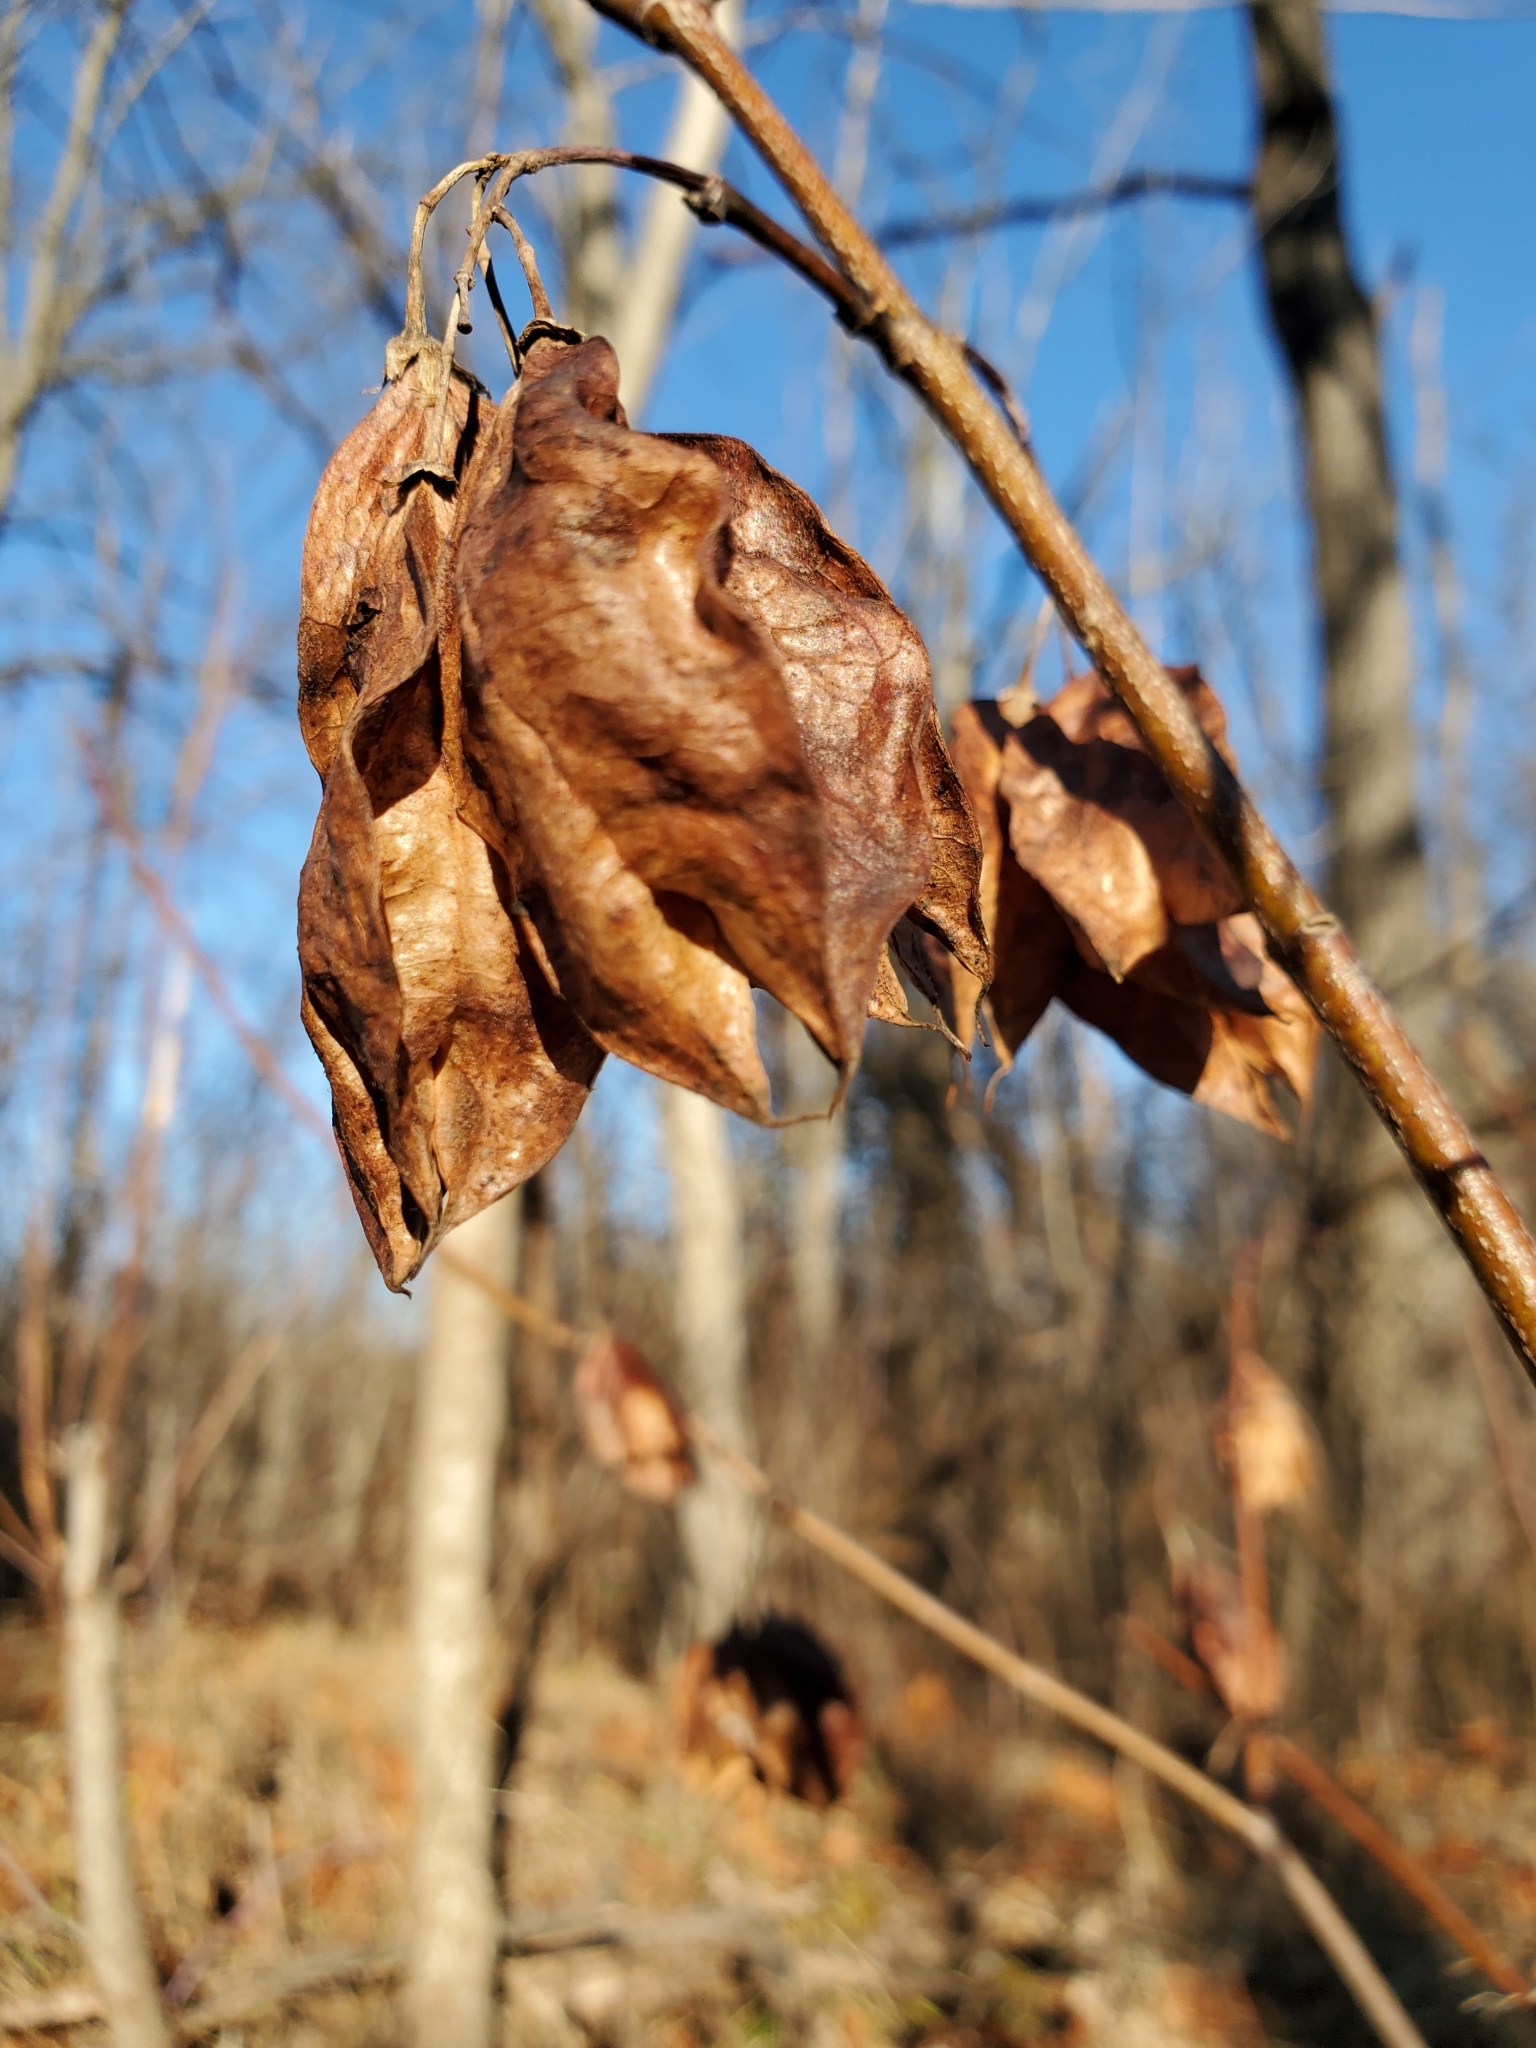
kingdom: Plantae
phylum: Tracheophyta
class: Magnoliopsida
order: Crossosomatales
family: Staphyleaceae
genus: Staphylea
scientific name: Staphylea trifolia
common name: American bladdernut
